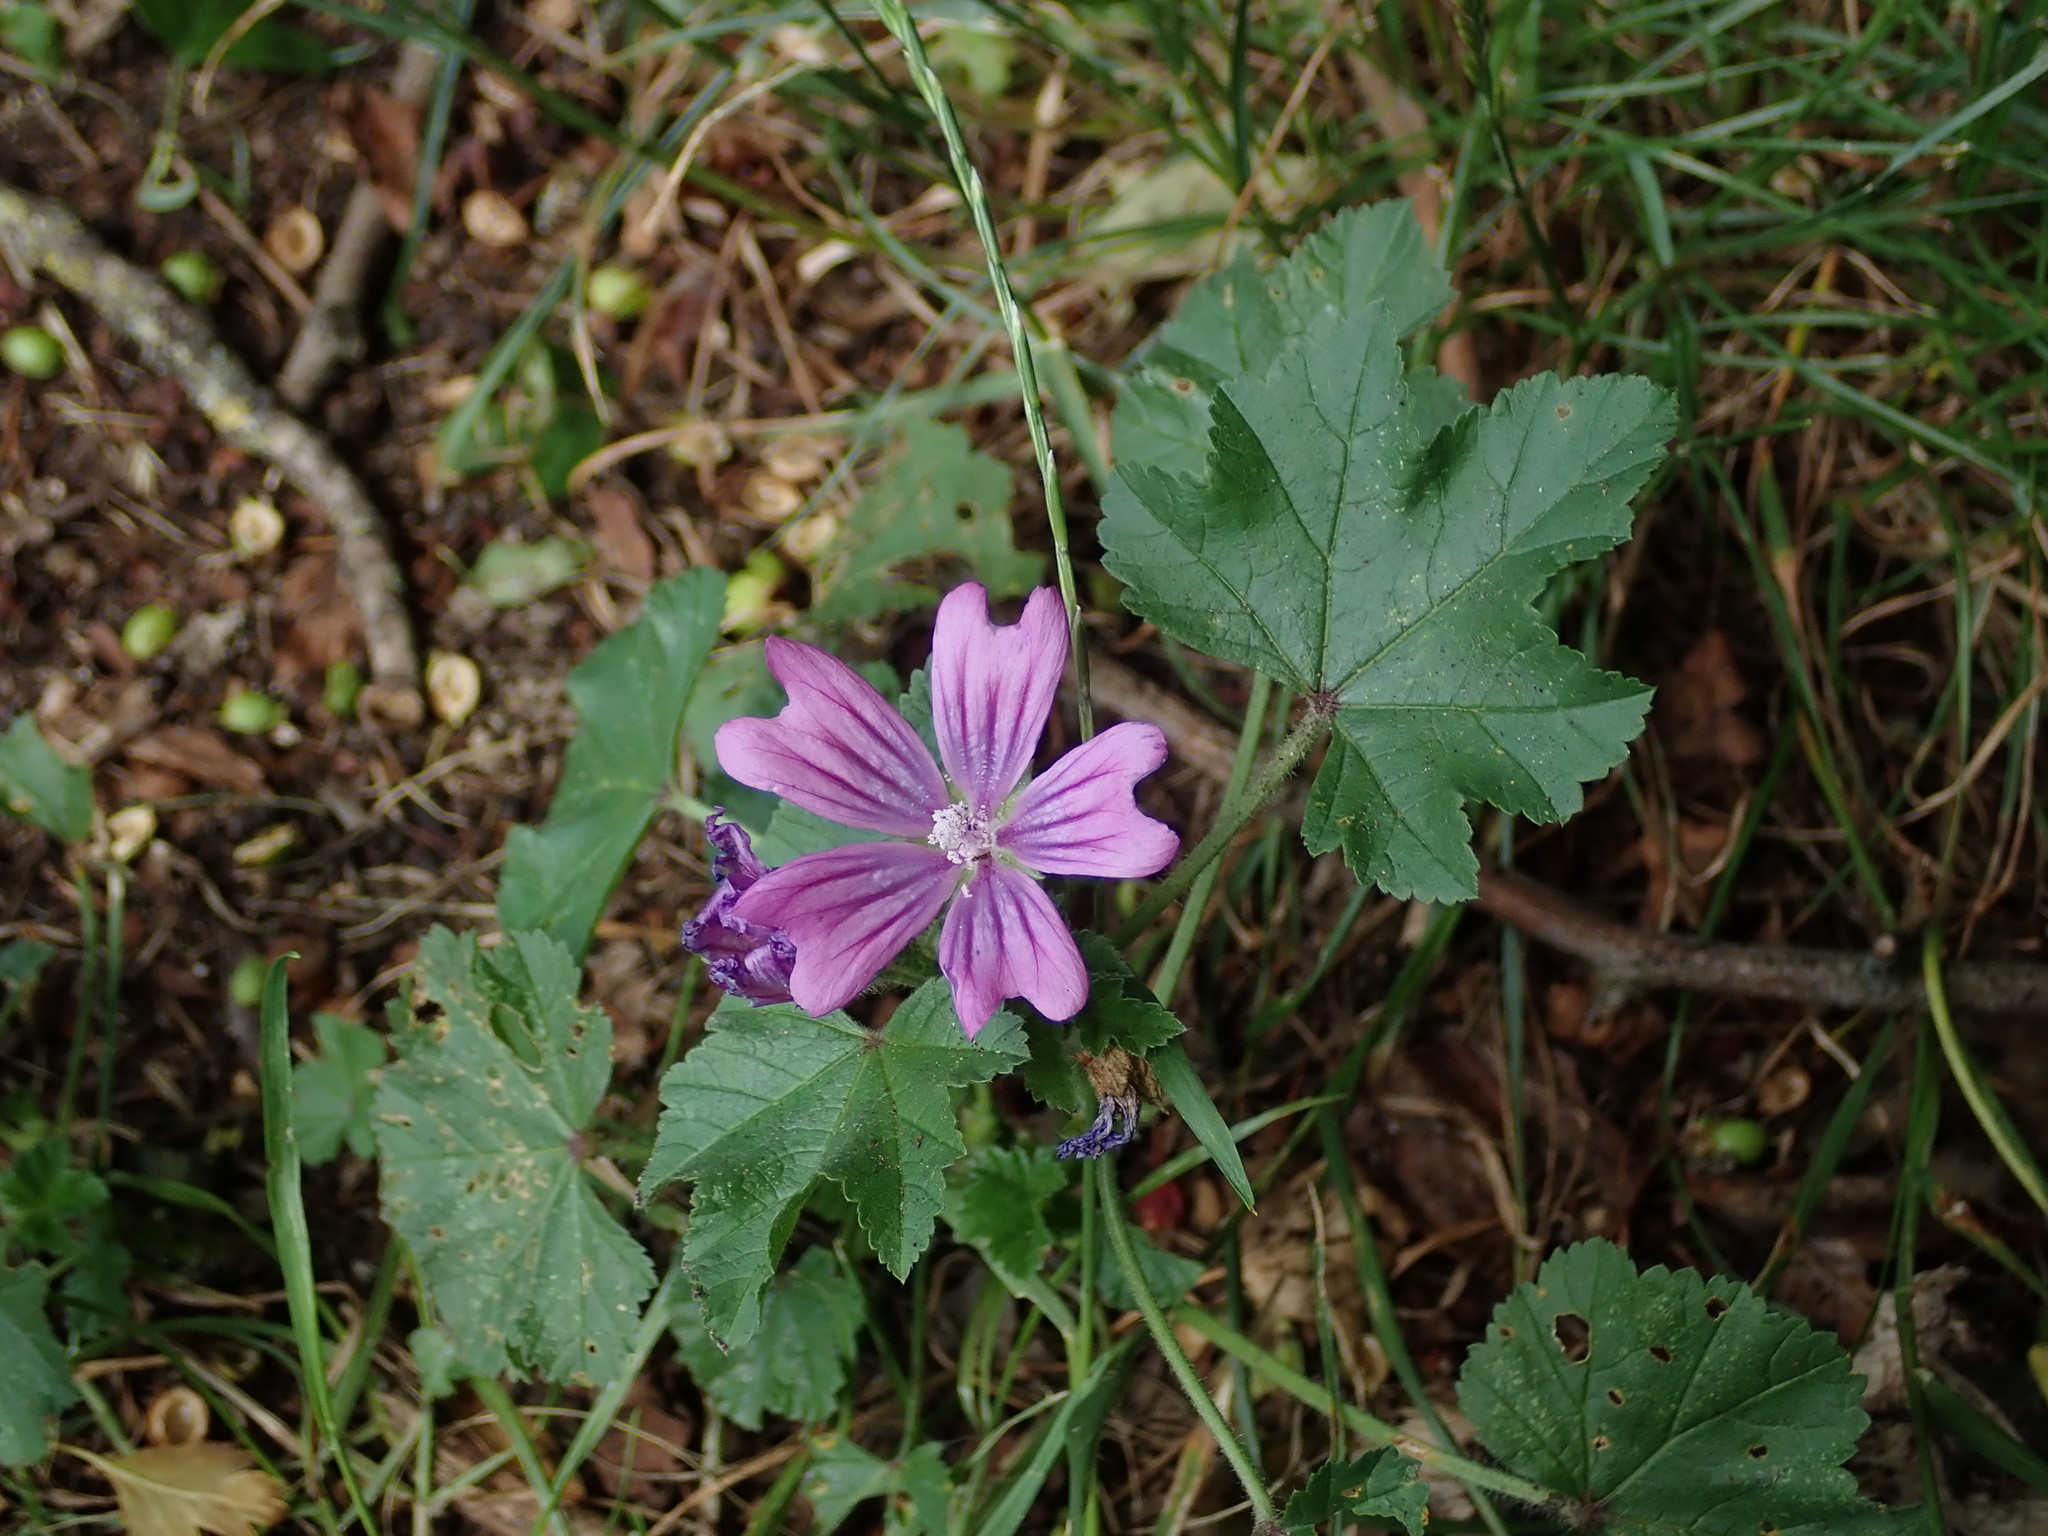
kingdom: Plantae
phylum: Tracheophyta
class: Magnoliopsida
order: Malvales
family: Malvaceae
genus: Malva
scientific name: Malva sylvestris
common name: Common mallow
